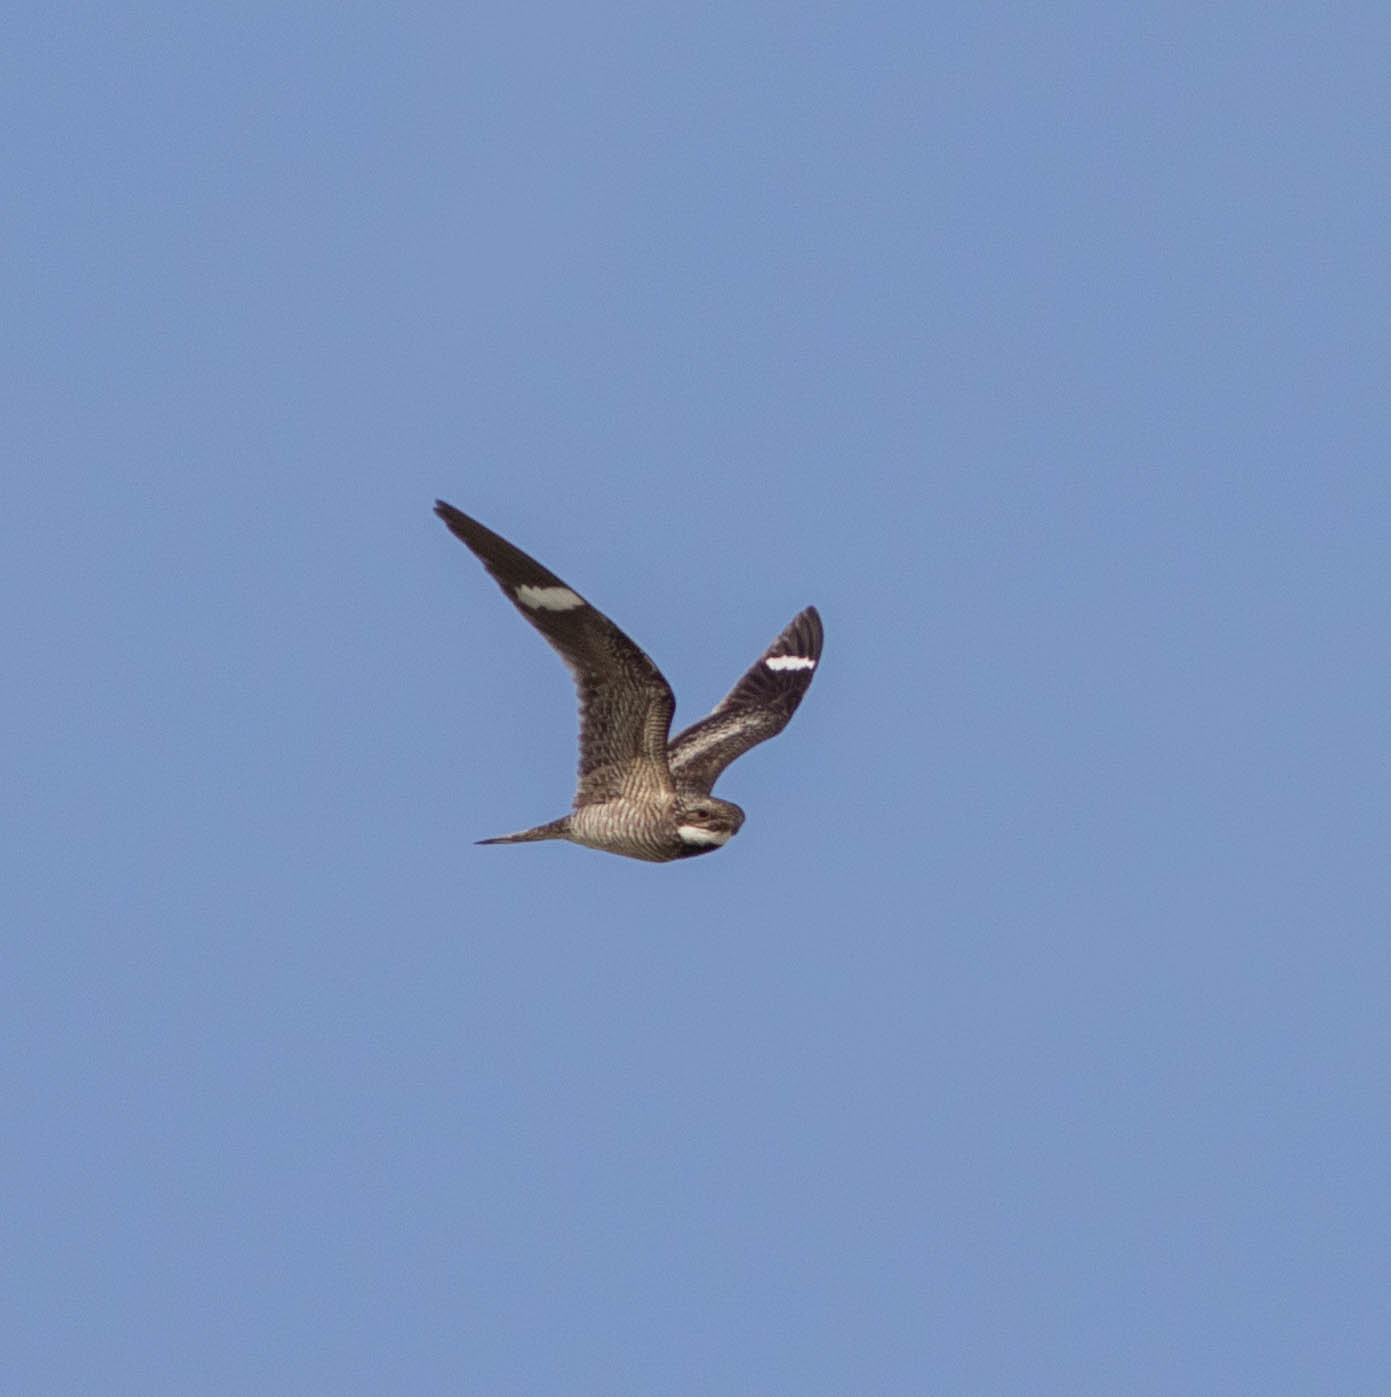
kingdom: Animalia
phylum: Chordata
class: Aves
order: Caprimulgiformes
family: Caprimulgidae
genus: Chordeiles
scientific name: Chordeiles minor
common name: Common nighthawk
